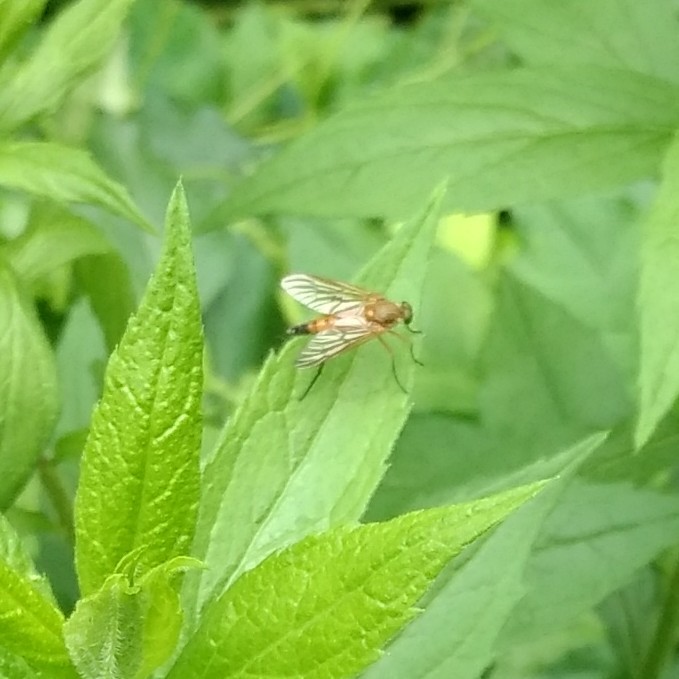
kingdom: Animalia
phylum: Arthropoda
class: Insecta
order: Diptera
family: Rhagionidae
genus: Rhagio
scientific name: Rhagio tringaria
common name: Marsh snipefly
